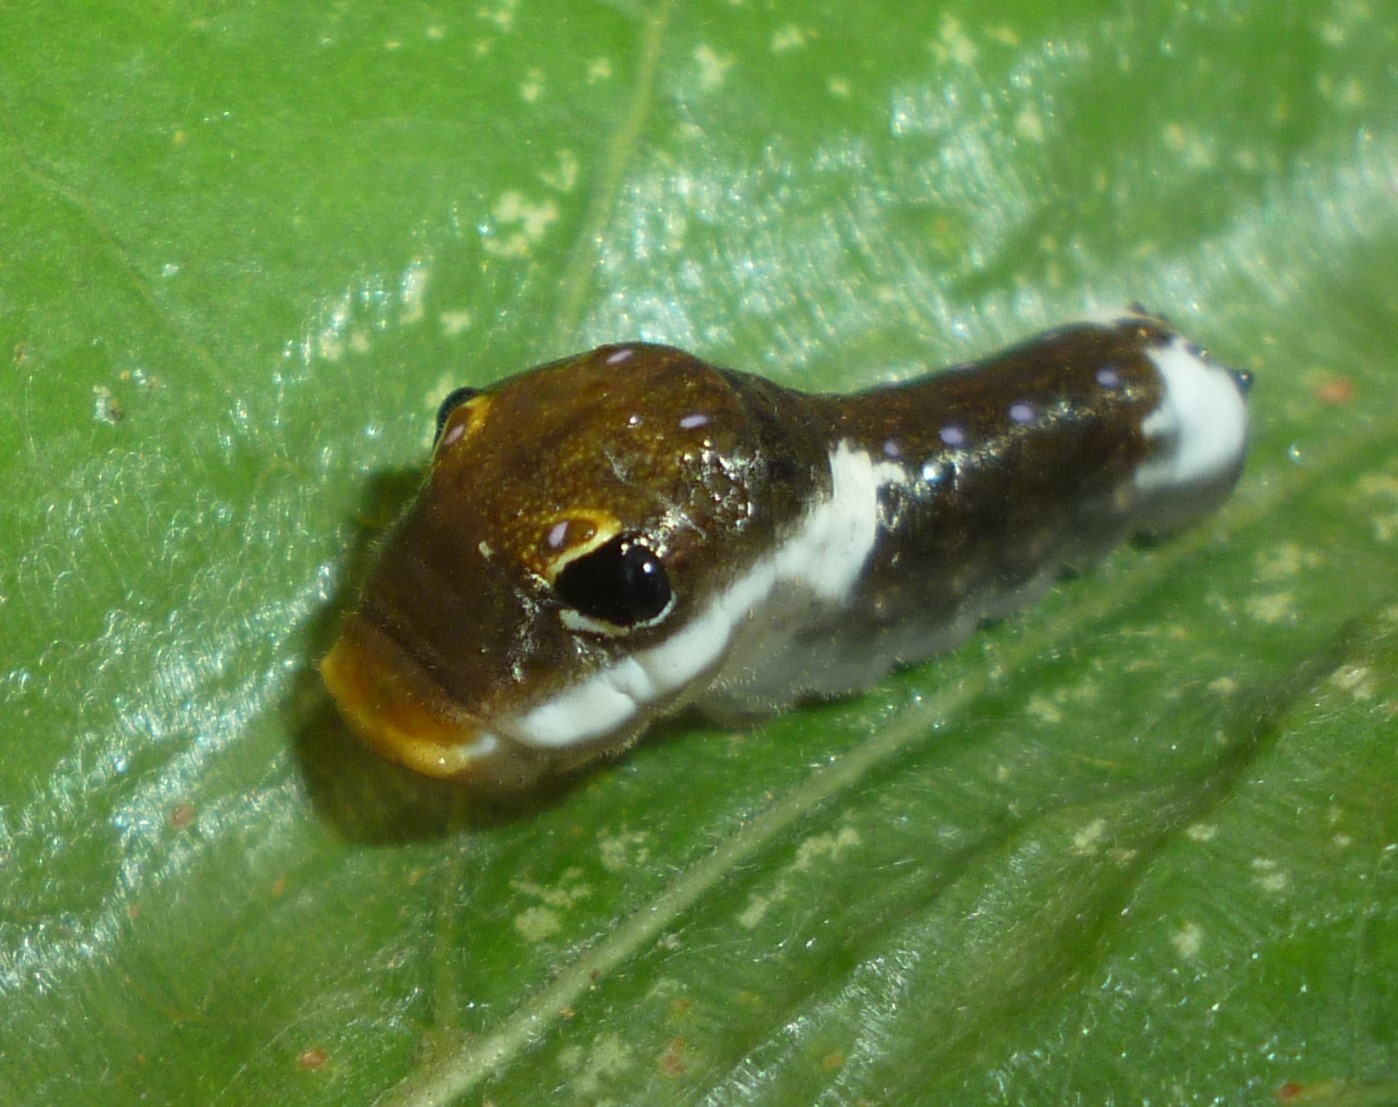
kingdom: Animalia
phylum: Arthropoda
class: Insecta
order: Lepidoptera
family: Papilionidae
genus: Papilio
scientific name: Papilio troilus
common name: Spicebush swallowtail
